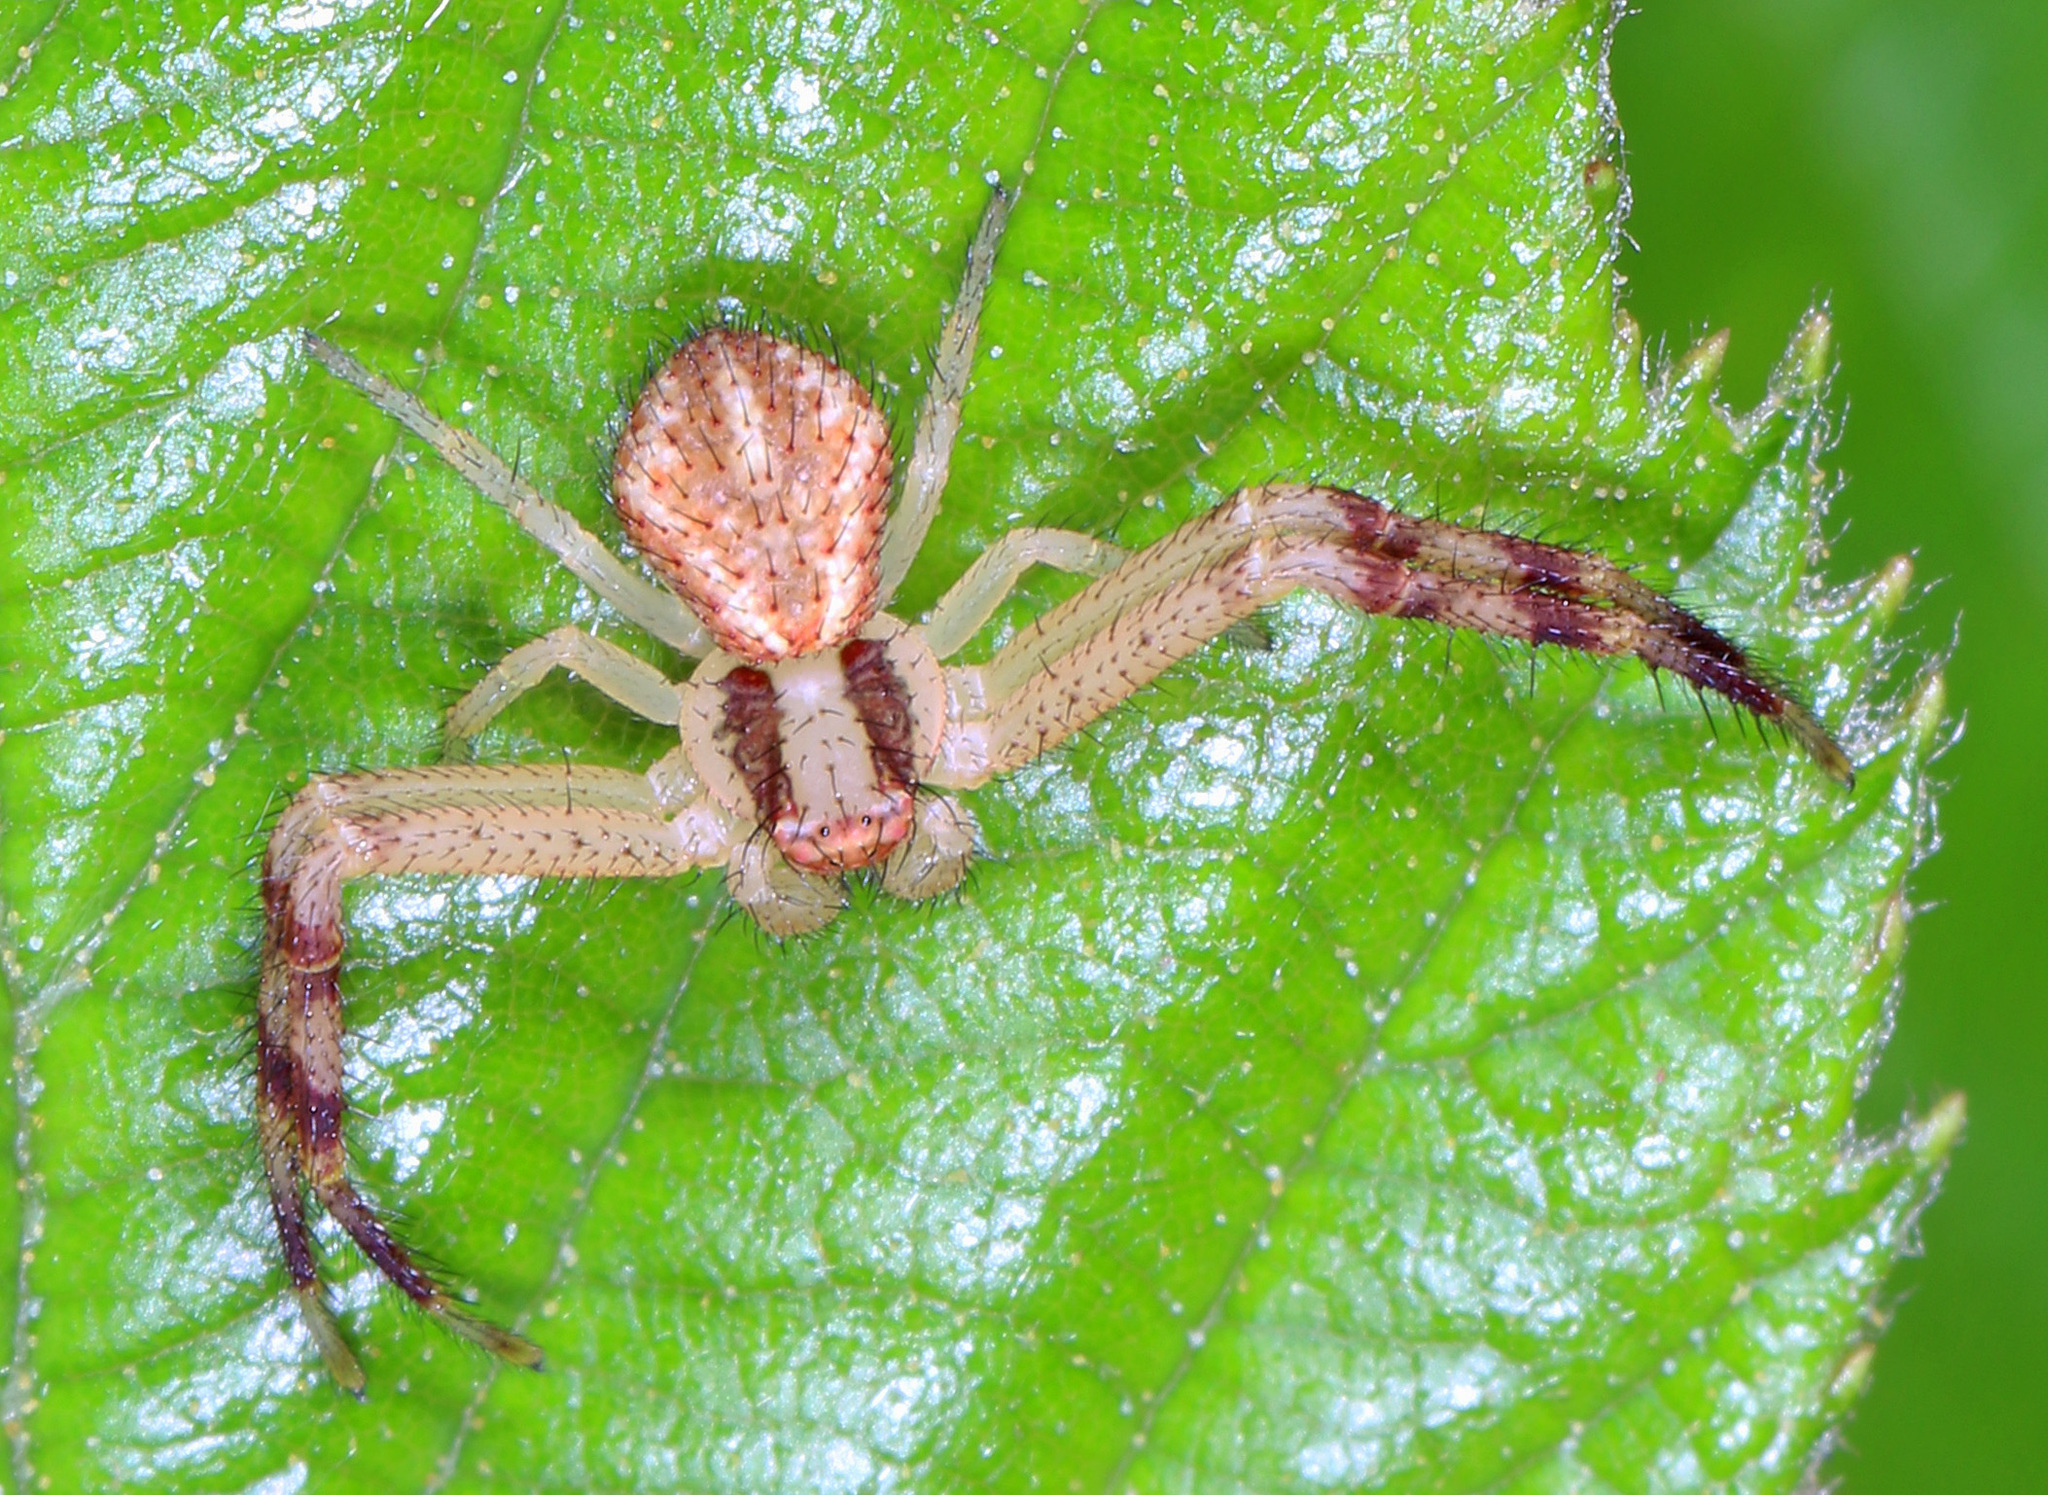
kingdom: Animalia
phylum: Arthropoda
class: Arachnida
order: Araneae
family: Thomisidae
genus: Mecaphesa
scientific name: Mecaphesa asperata
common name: Crab spiders
